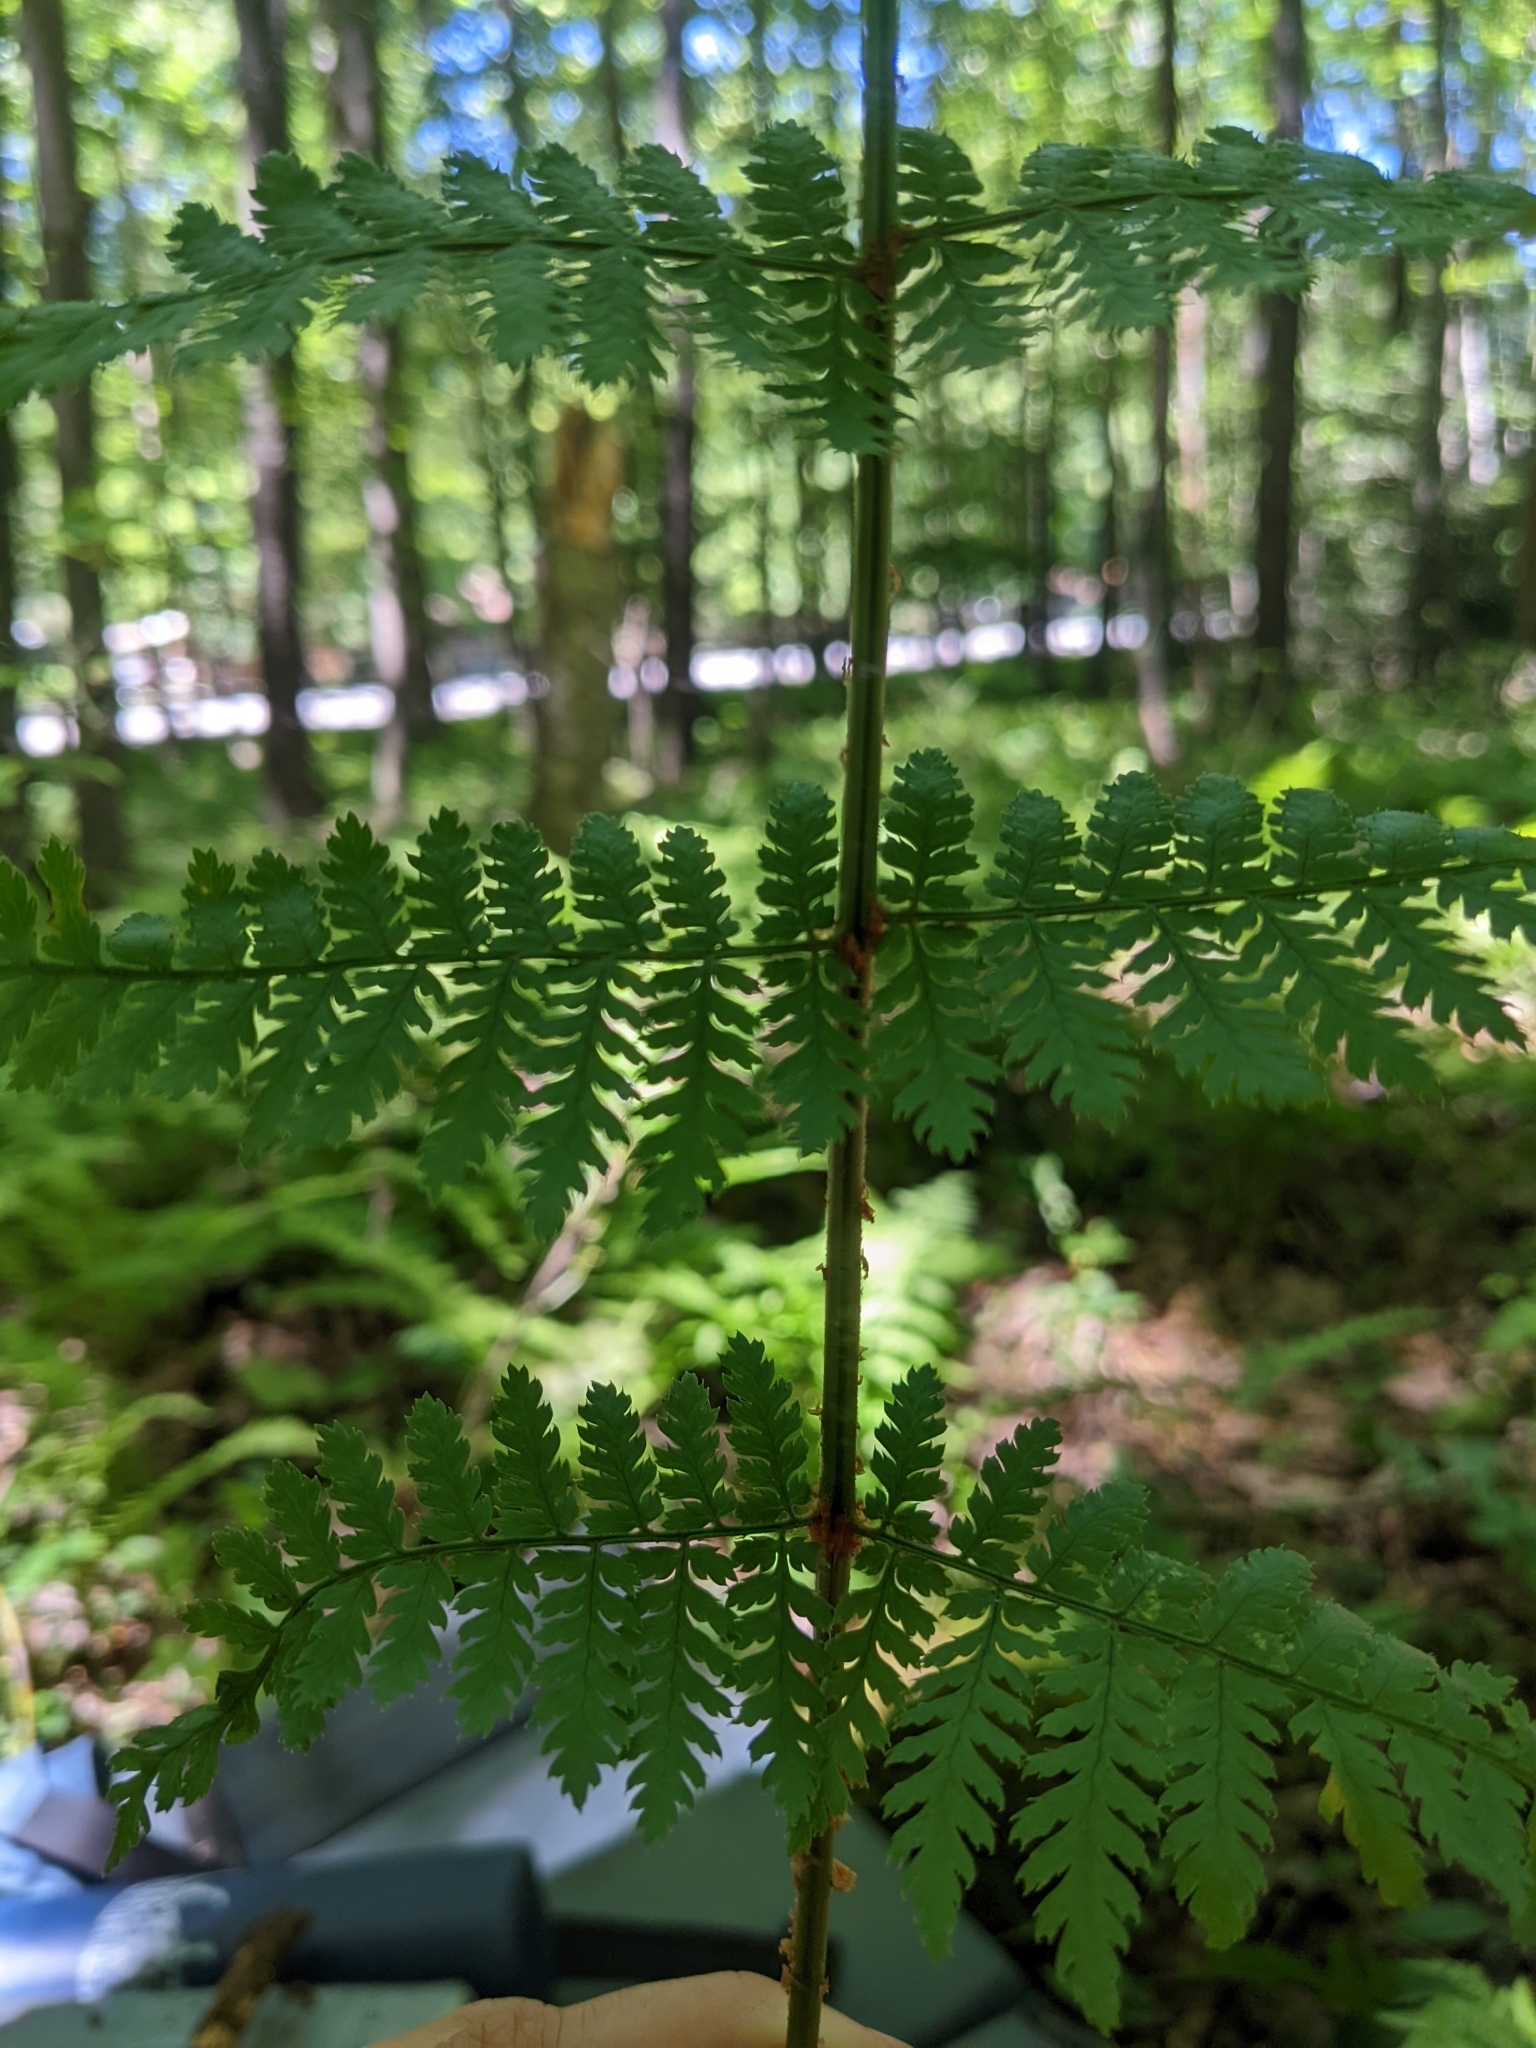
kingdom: Plantae
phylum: Tracheophyta
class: Polypodiopsida
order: Polypodiales
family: Dryopteridaceae
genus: Dryopteris
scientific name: Dryopteris intermedia
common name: Evergreen wood fern
